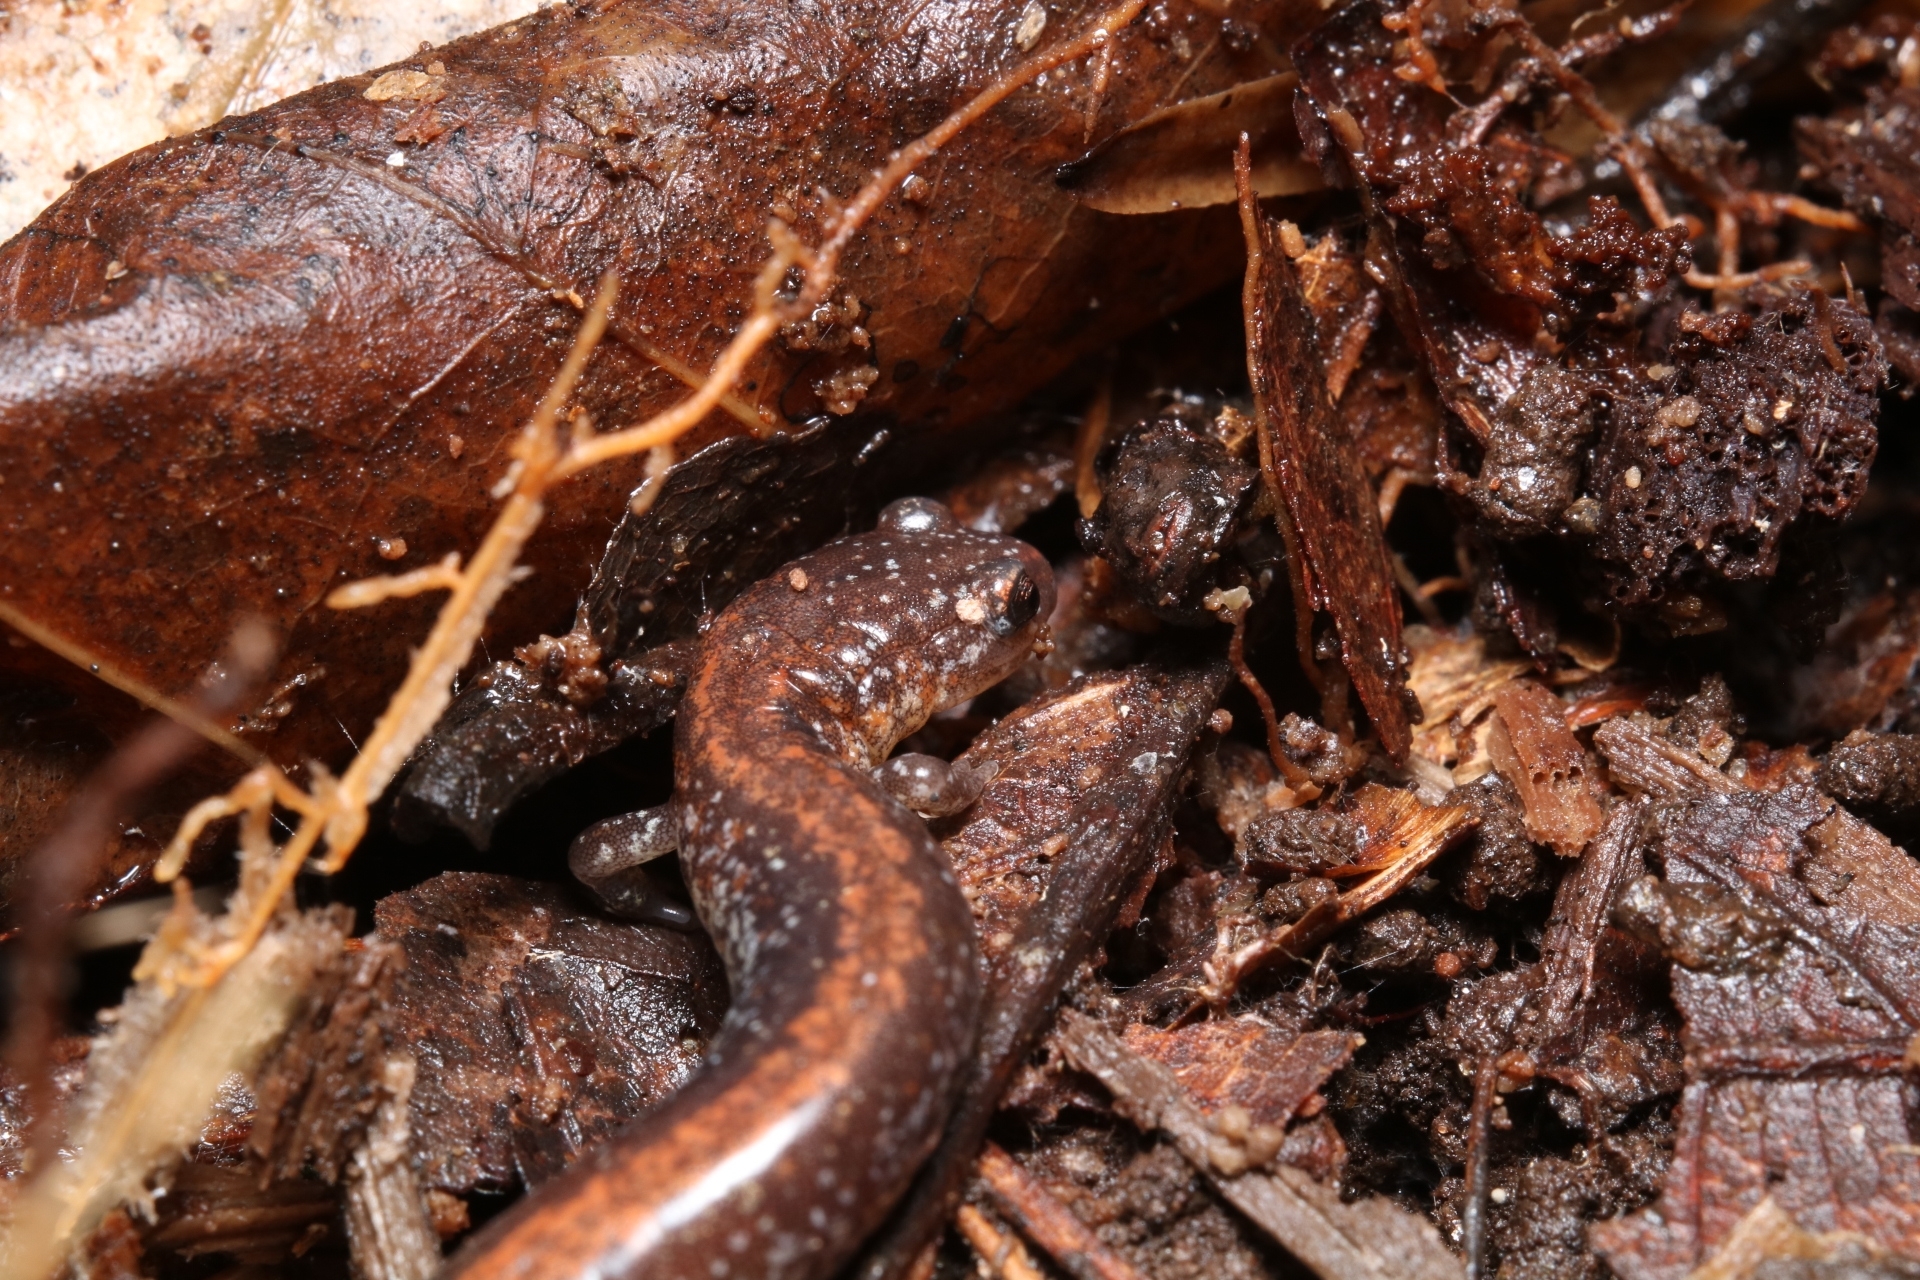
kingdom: Animalia
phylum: Chordata
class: Amphibia
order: Caudata
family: Plethodontidae
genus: Plethodon
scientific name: Plethodon cinereus
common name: Redback salamander
